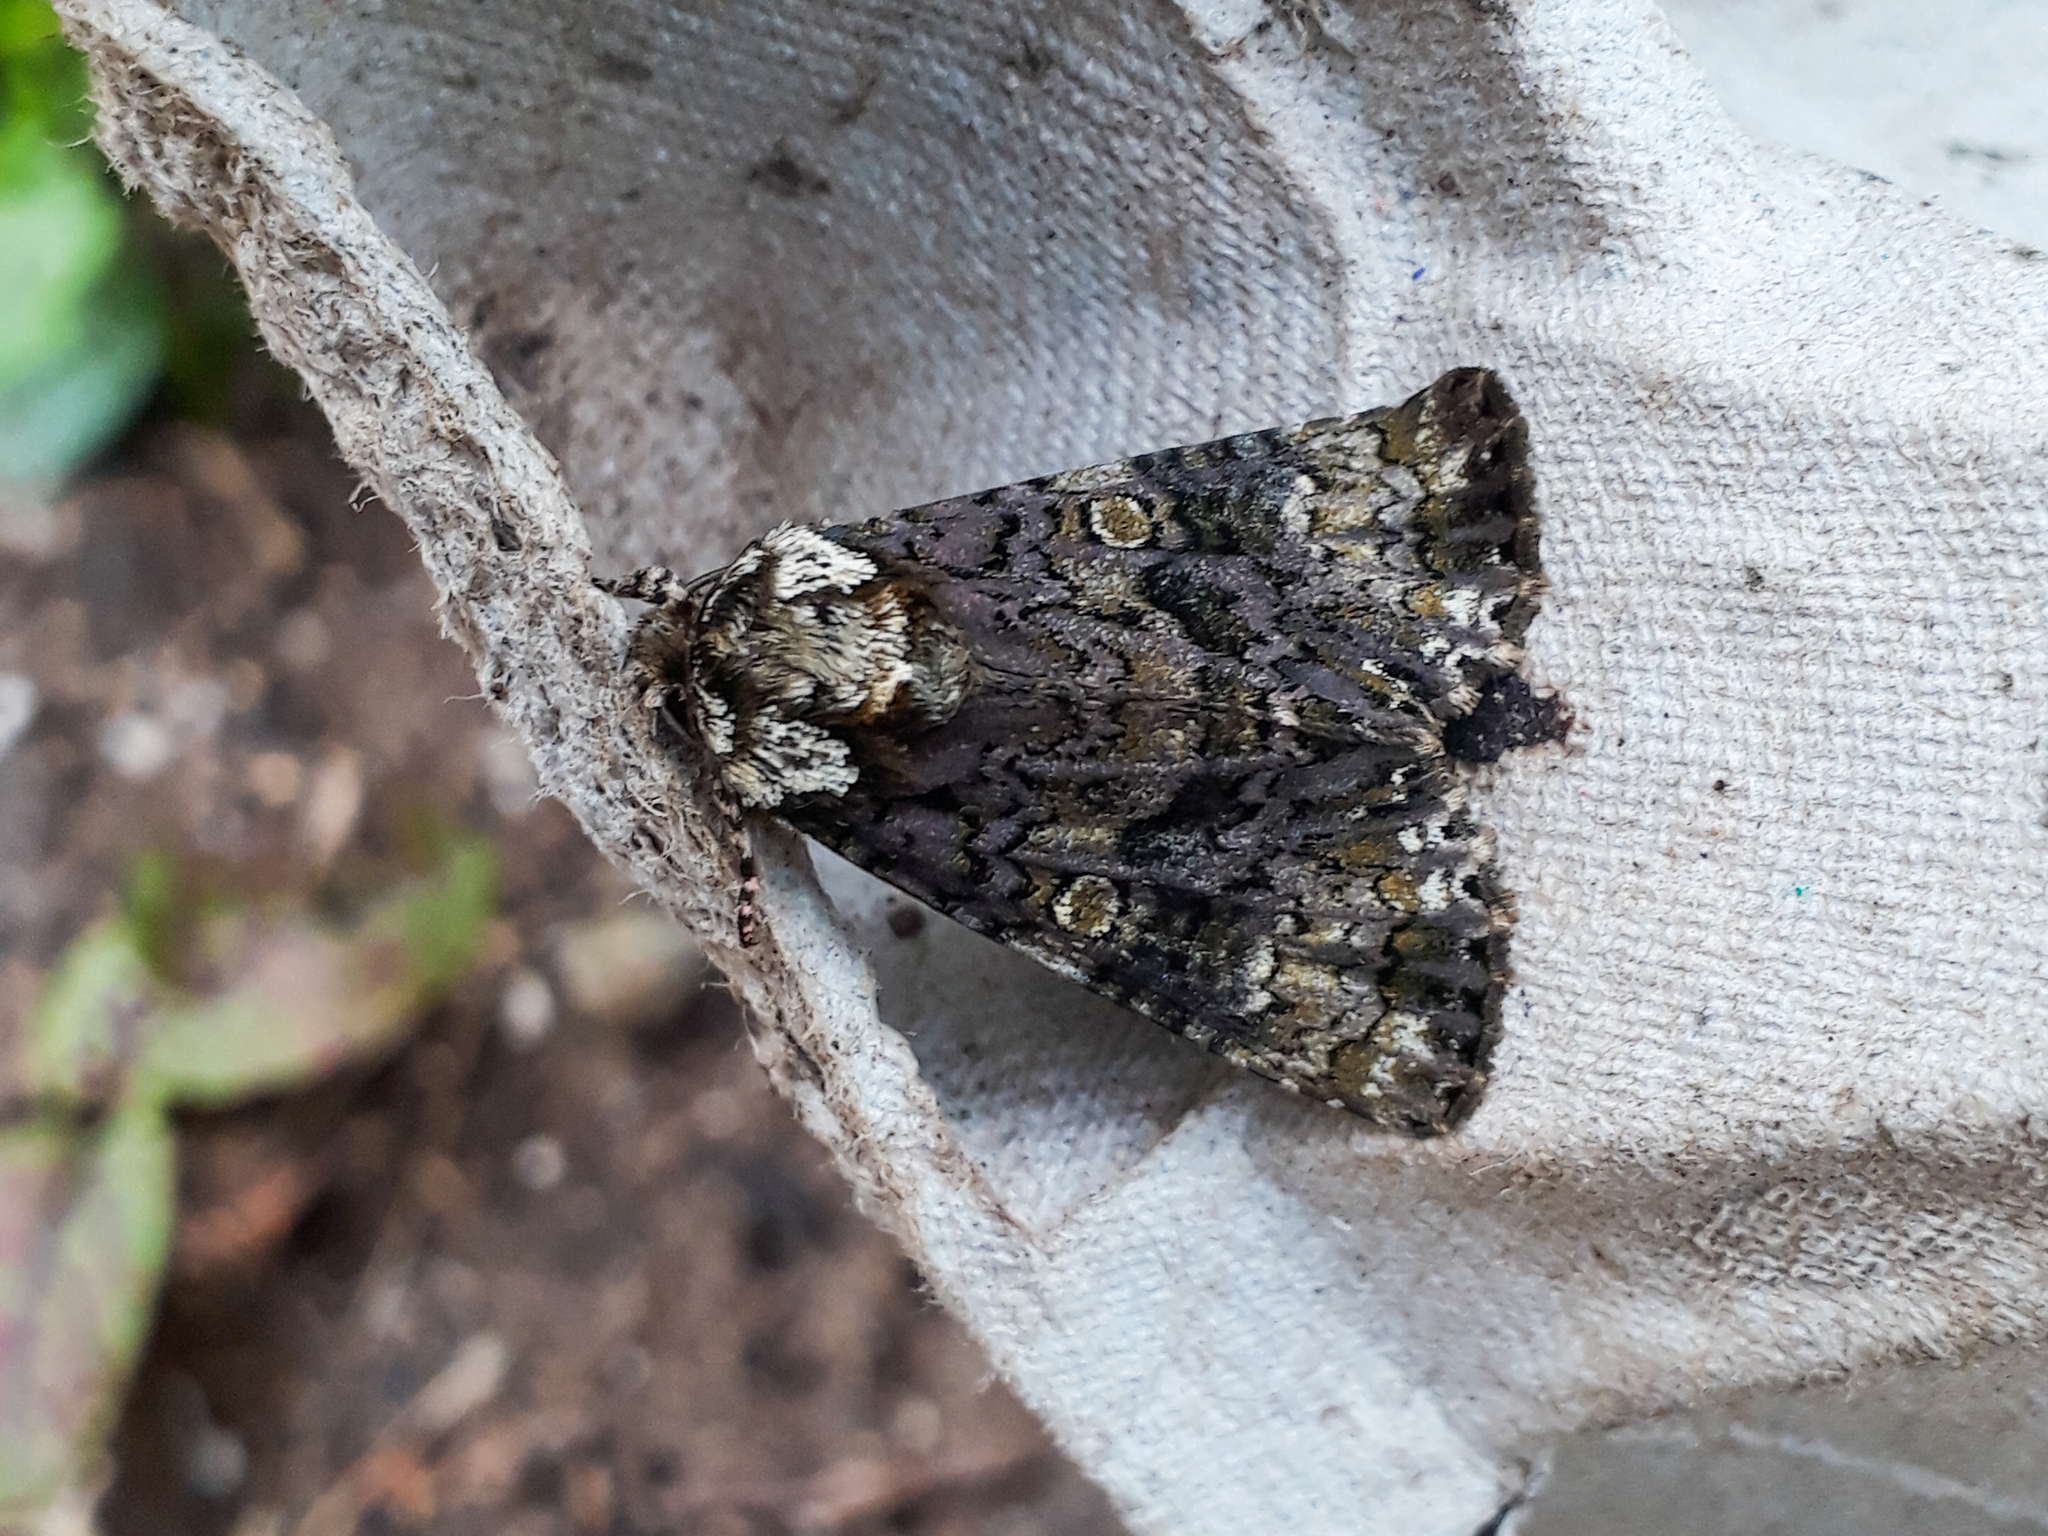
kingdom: Animalia
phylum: Arthropoda
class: Insecta
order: Lepidoptera
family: Noctuidae
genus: Craniophora
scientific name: Craniophora ligustri
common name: Coronet
